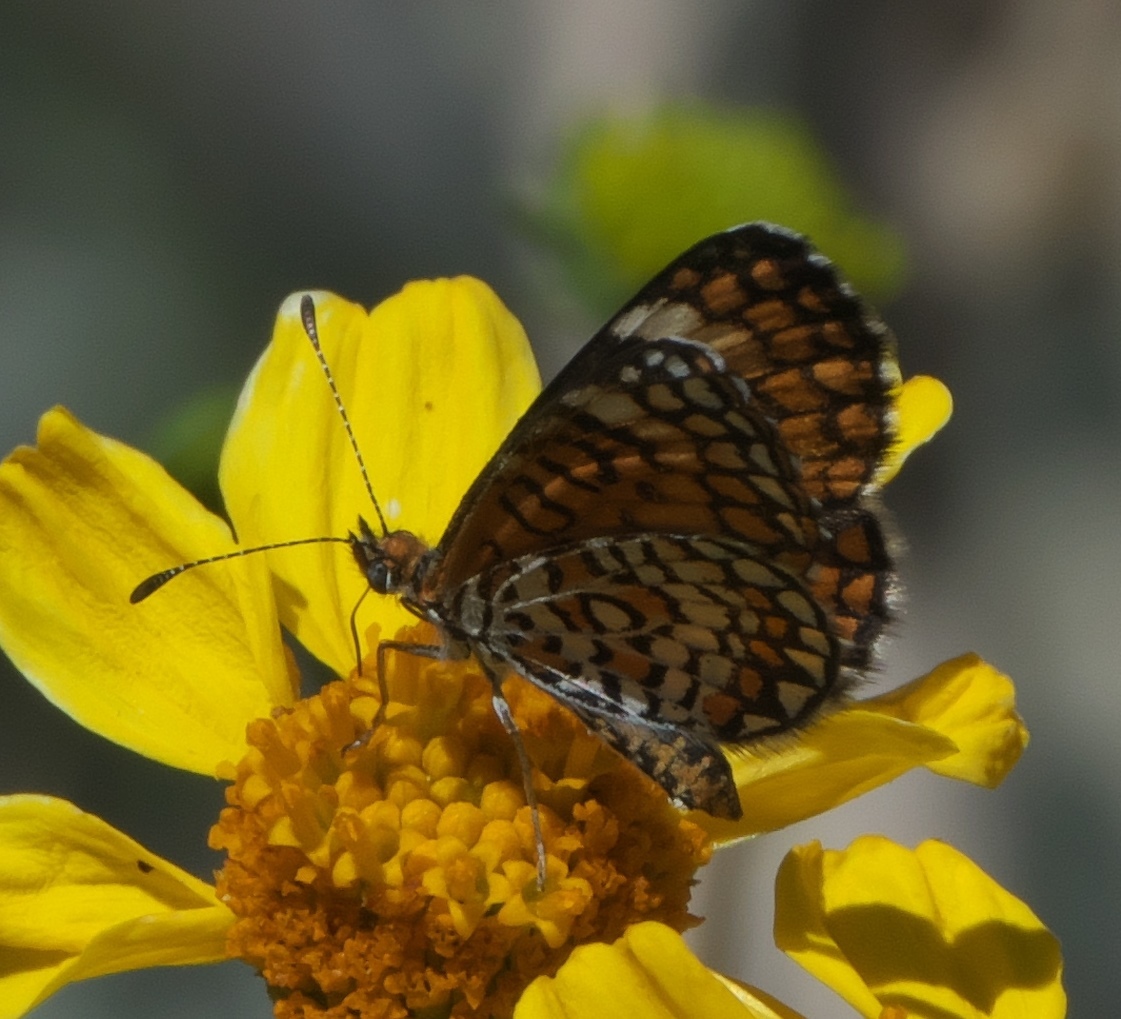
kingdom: Animalia
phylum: Arthropoda
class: Insecta
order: Lepidoptera
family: Nymphalidae
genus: Dymasia
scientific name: Dymasia dymas
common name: Tiny checkerspot
